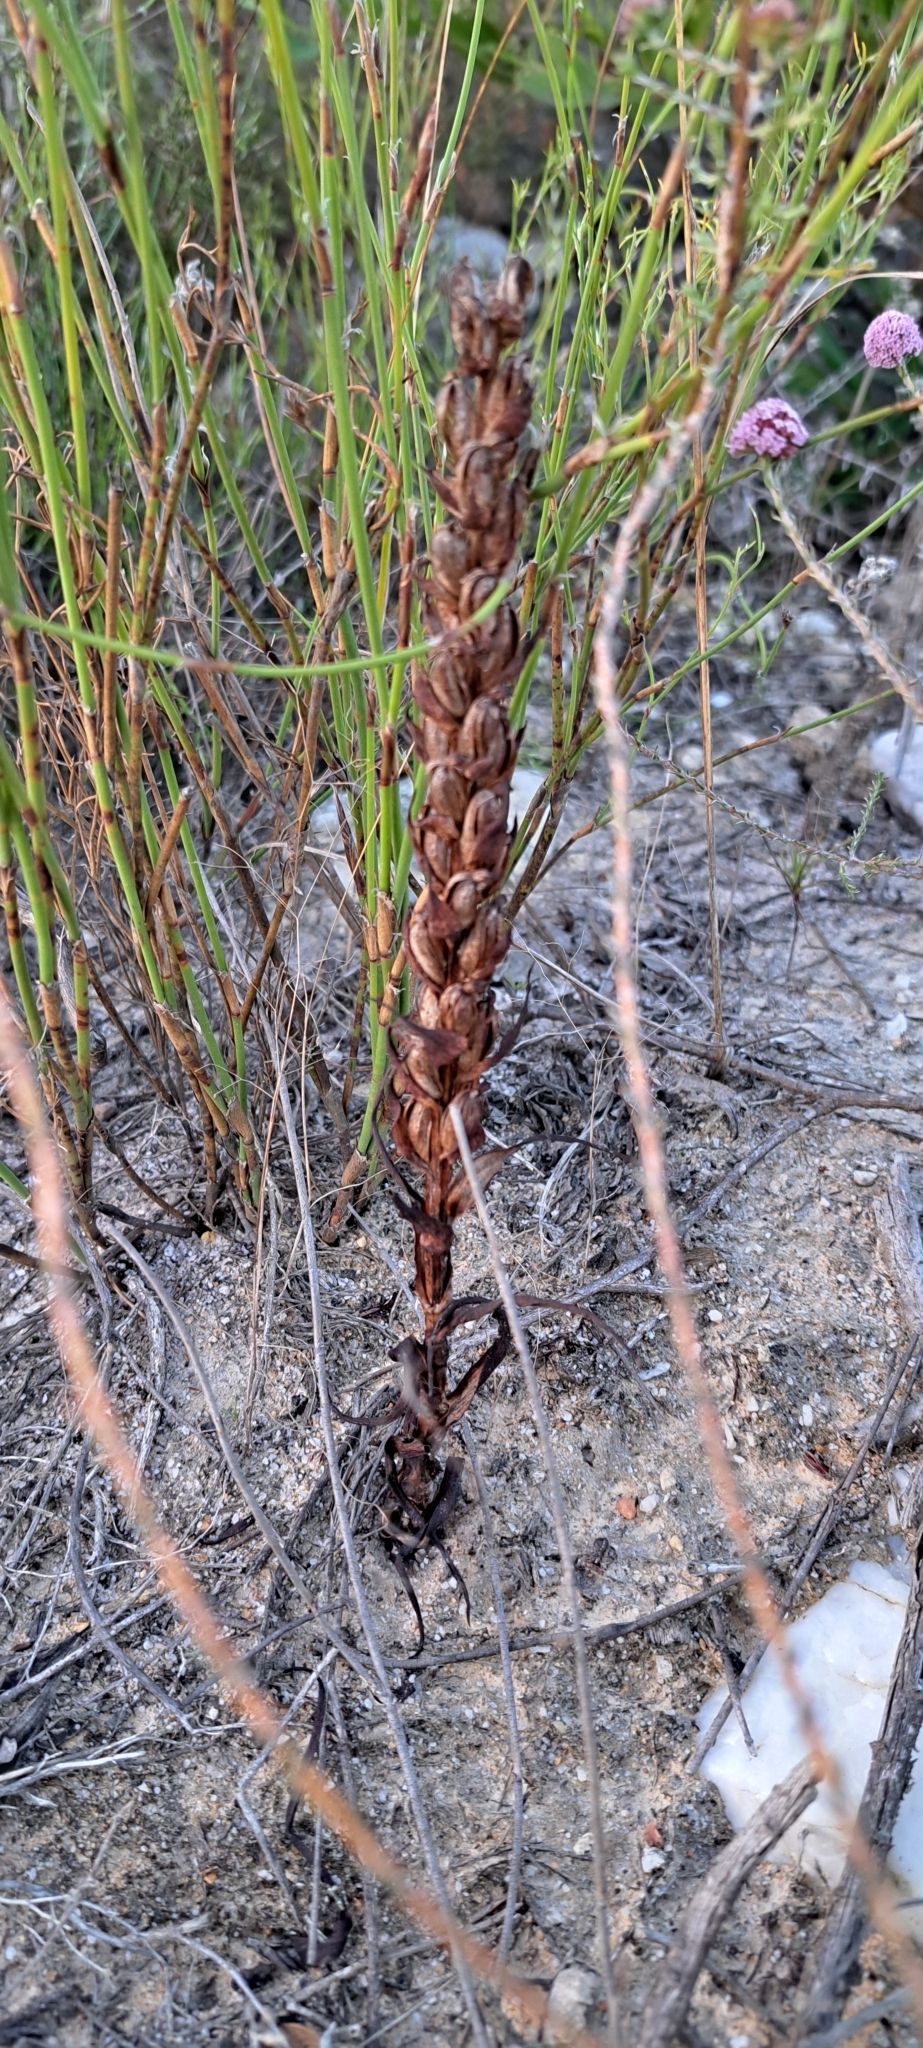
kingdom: Plantae
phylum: Tracheophyta
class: Liliopsida
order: Asparagales
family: Orchidaceae
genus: Disa
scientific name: Disa bracteata
